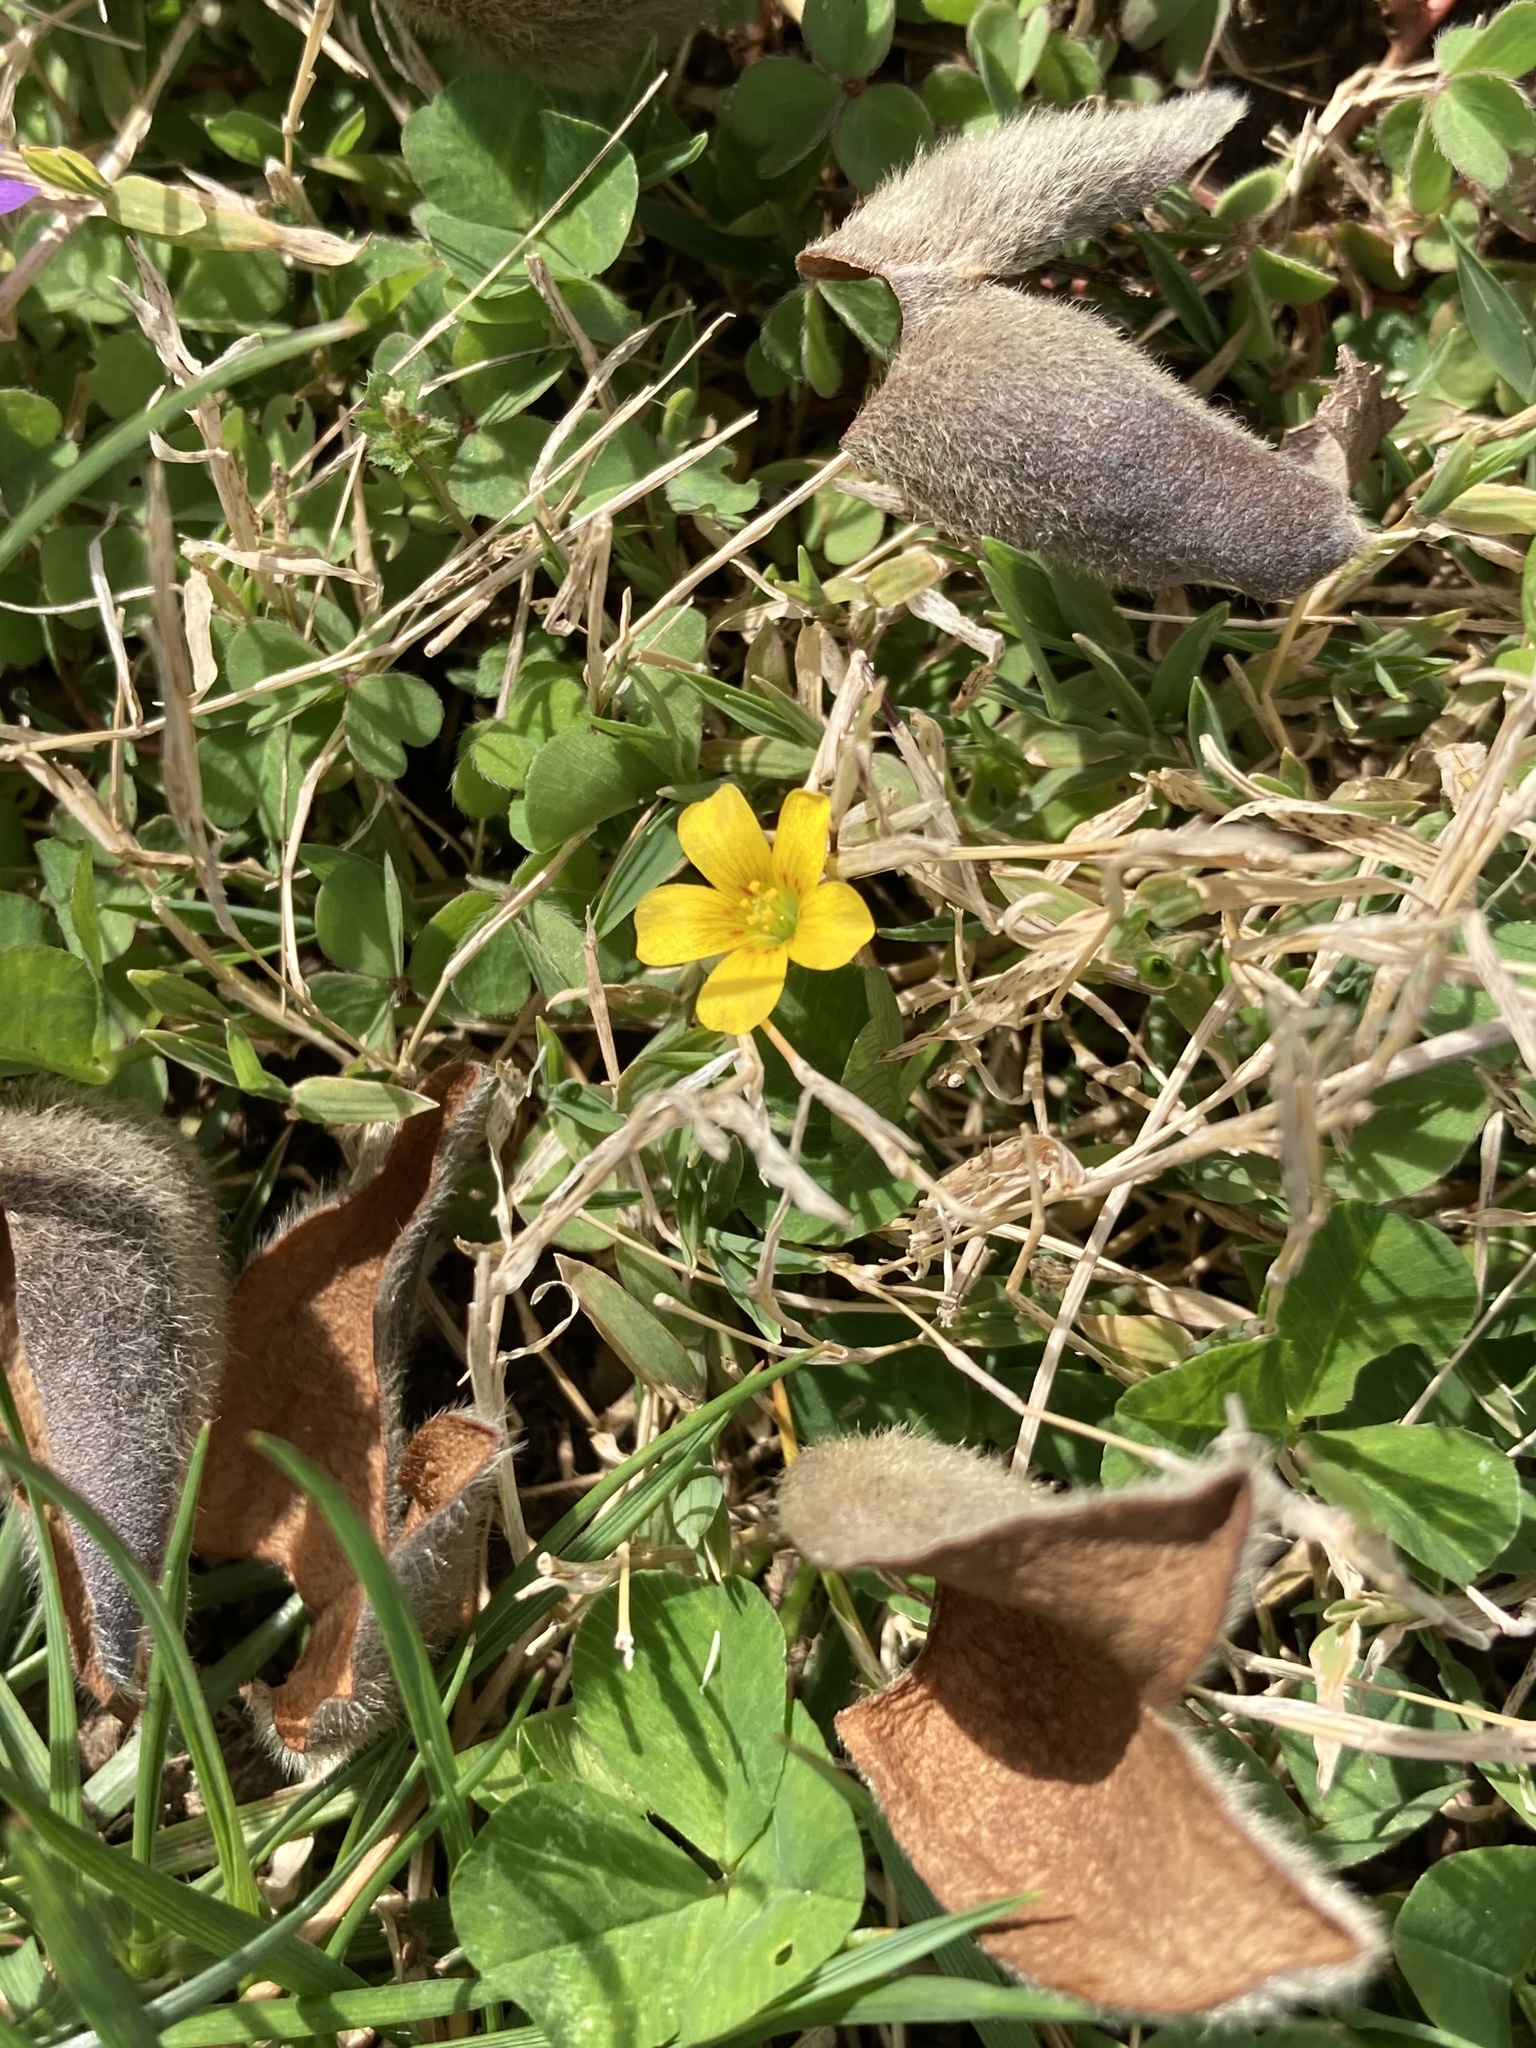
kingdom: Plantae
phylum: Tracheophyta
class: Magnoliopsida
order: Oxalidales
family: Oxalidaceae
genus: Oxalis
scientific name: Oxalis corniculata
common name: Procumbent yellow-sorrel
